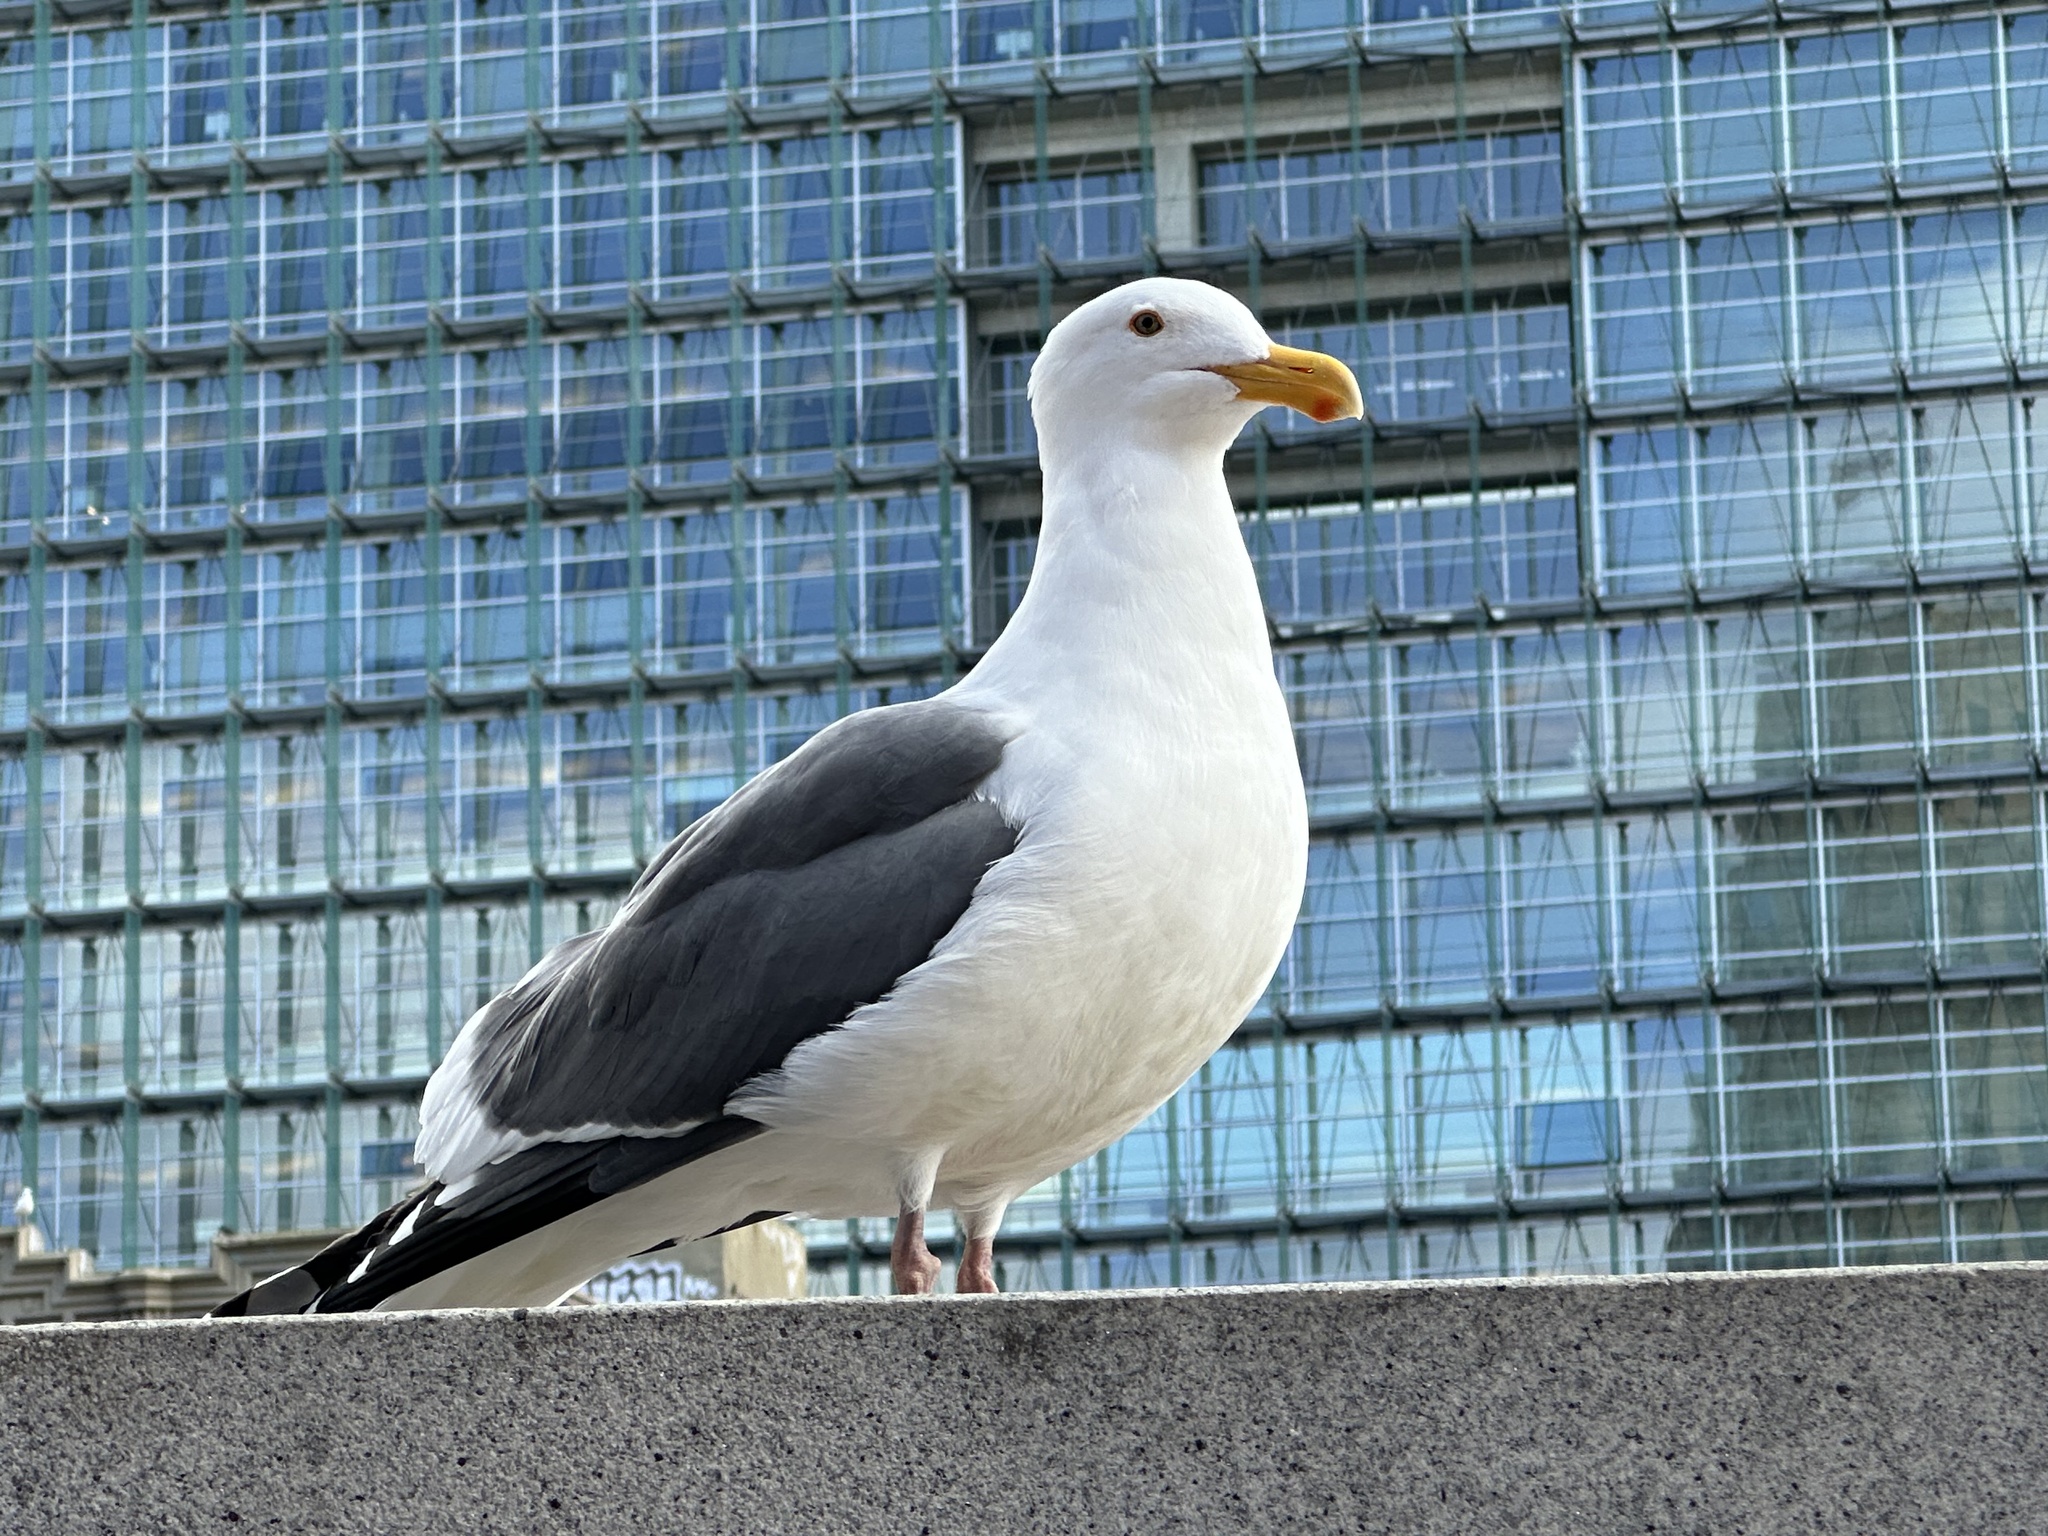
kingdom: Animalia
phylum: Chordata
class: Aves
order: Charadriiformes
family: Laridae
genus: Larus
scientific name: Larus occidentalis
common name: Western gull
